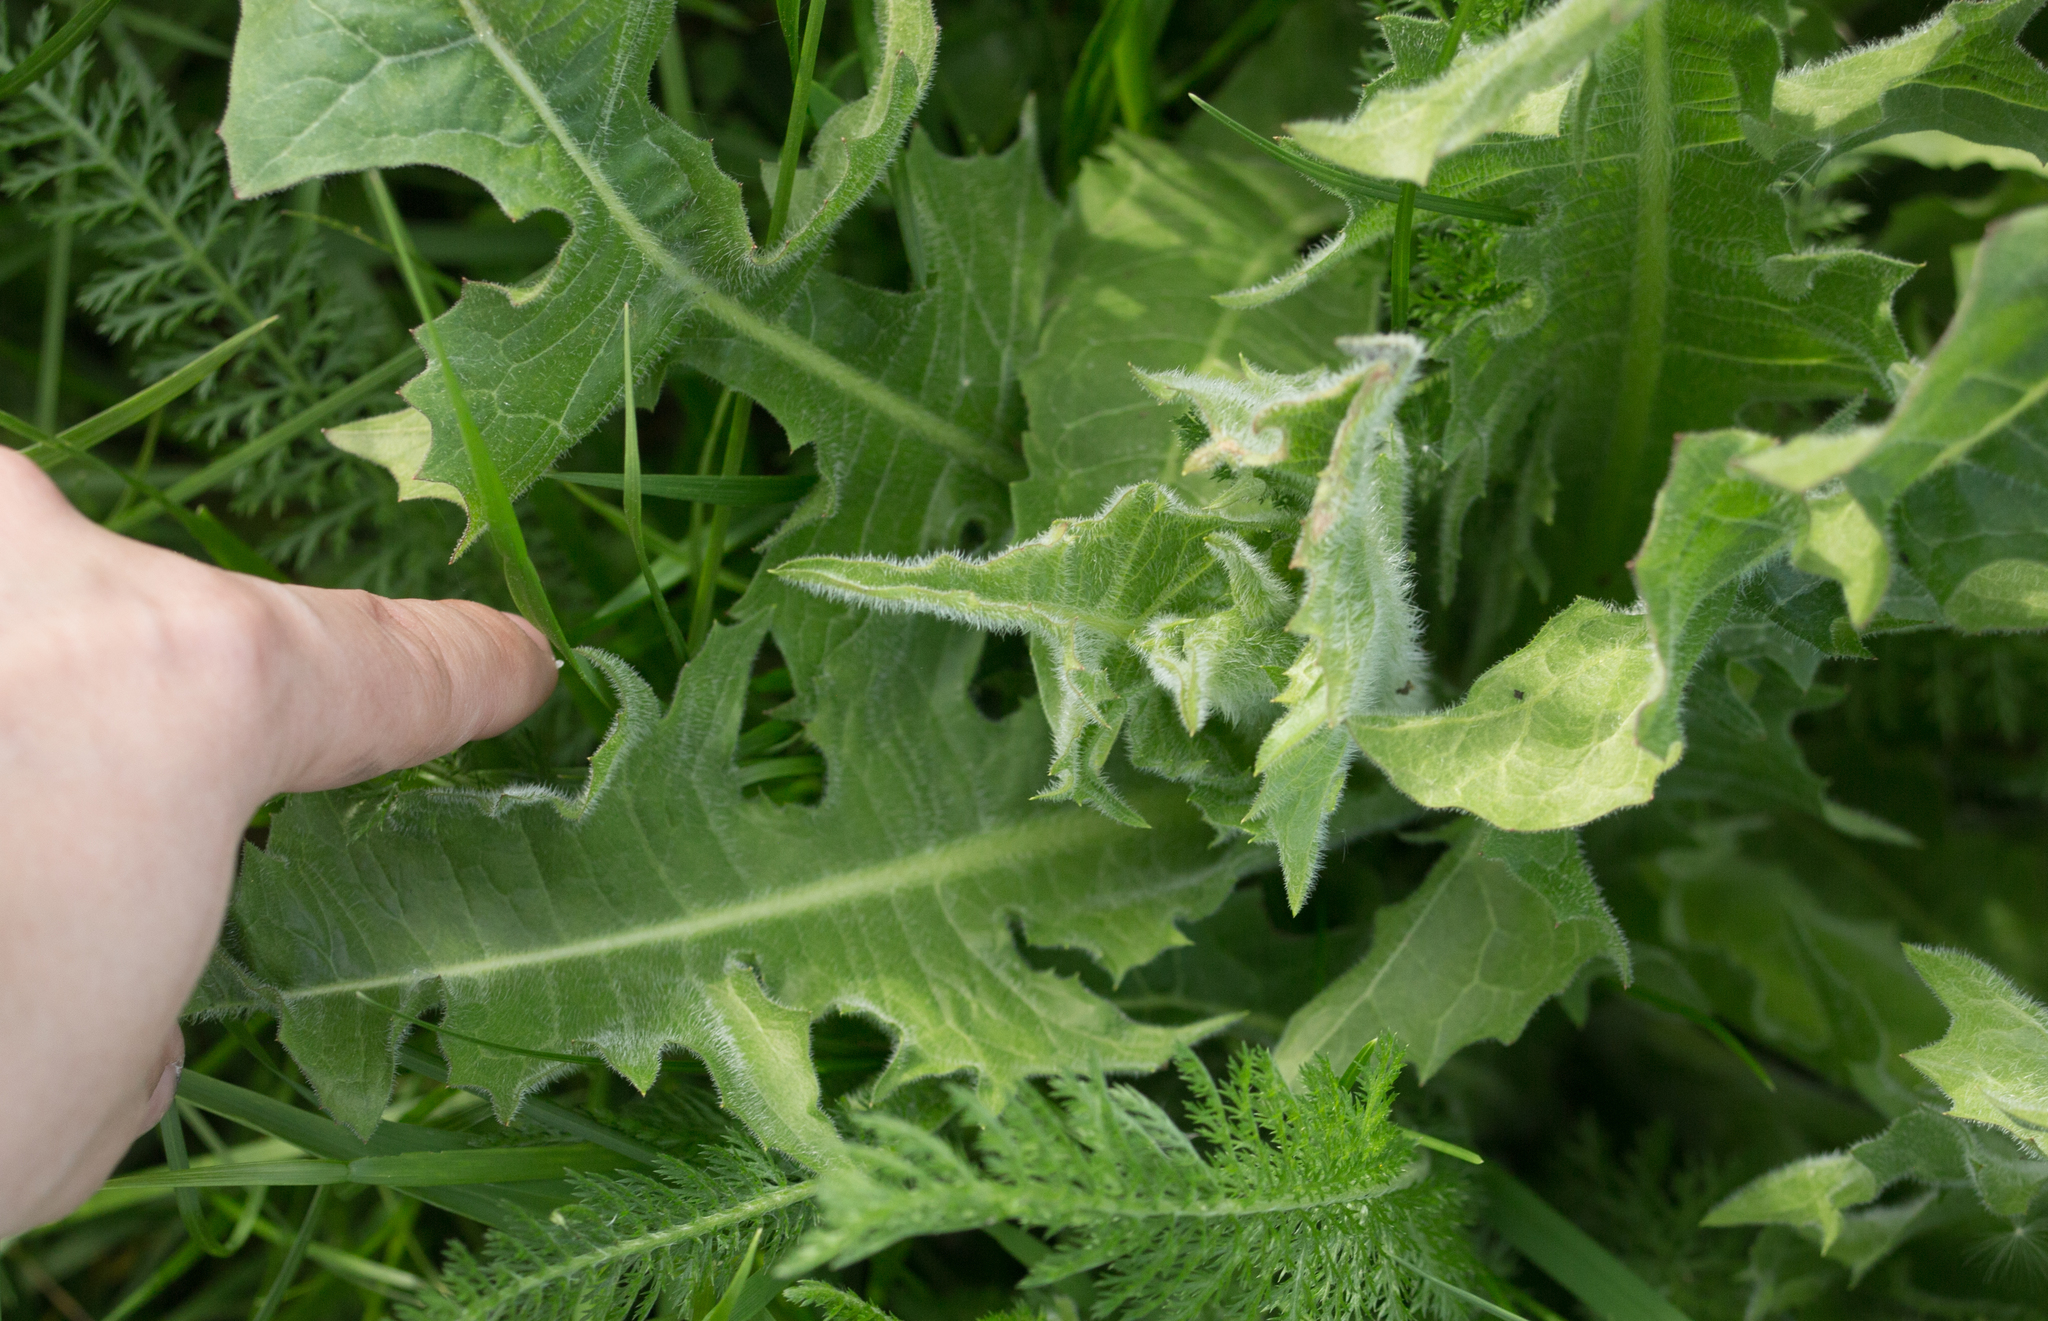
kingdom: Plantae
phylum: Tracheophyta
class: Magnoliopsida
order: Asterales
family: Asteraceae
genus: Cichorium
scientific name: Cichorium intybus
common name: Chicory
